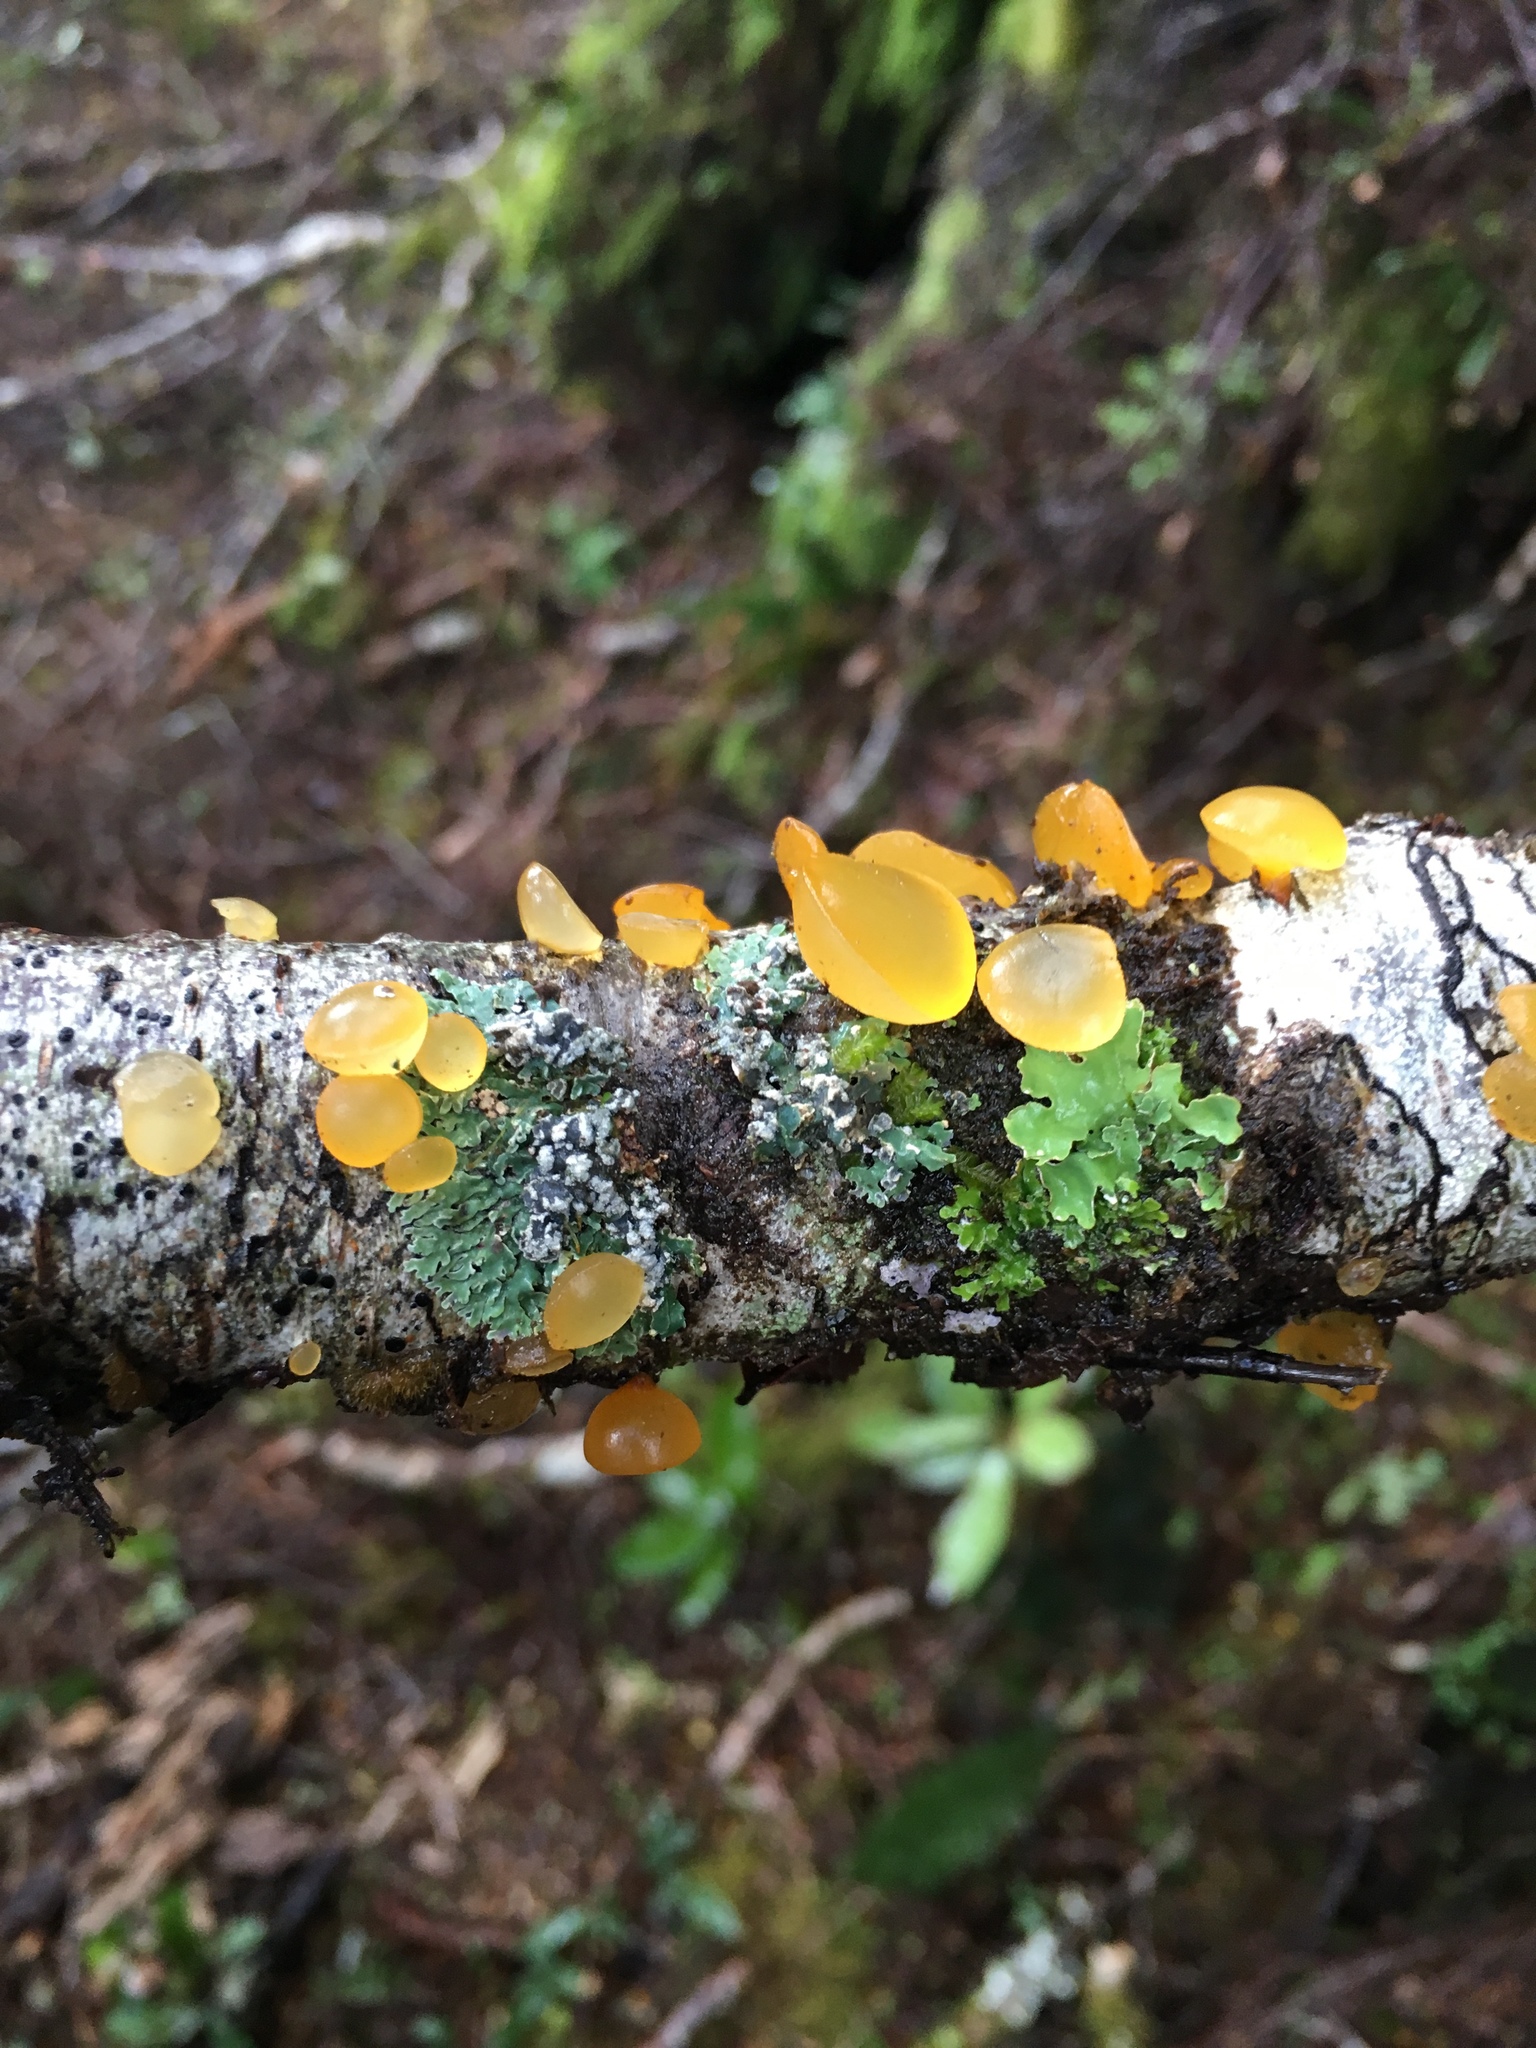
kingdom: Fungi
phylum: Basidiomycota
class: Dacrymycetes
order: Dacrymycetales
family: Dacrymycetaceae
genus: Heterotextus
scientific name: Heterotextus miltinus
